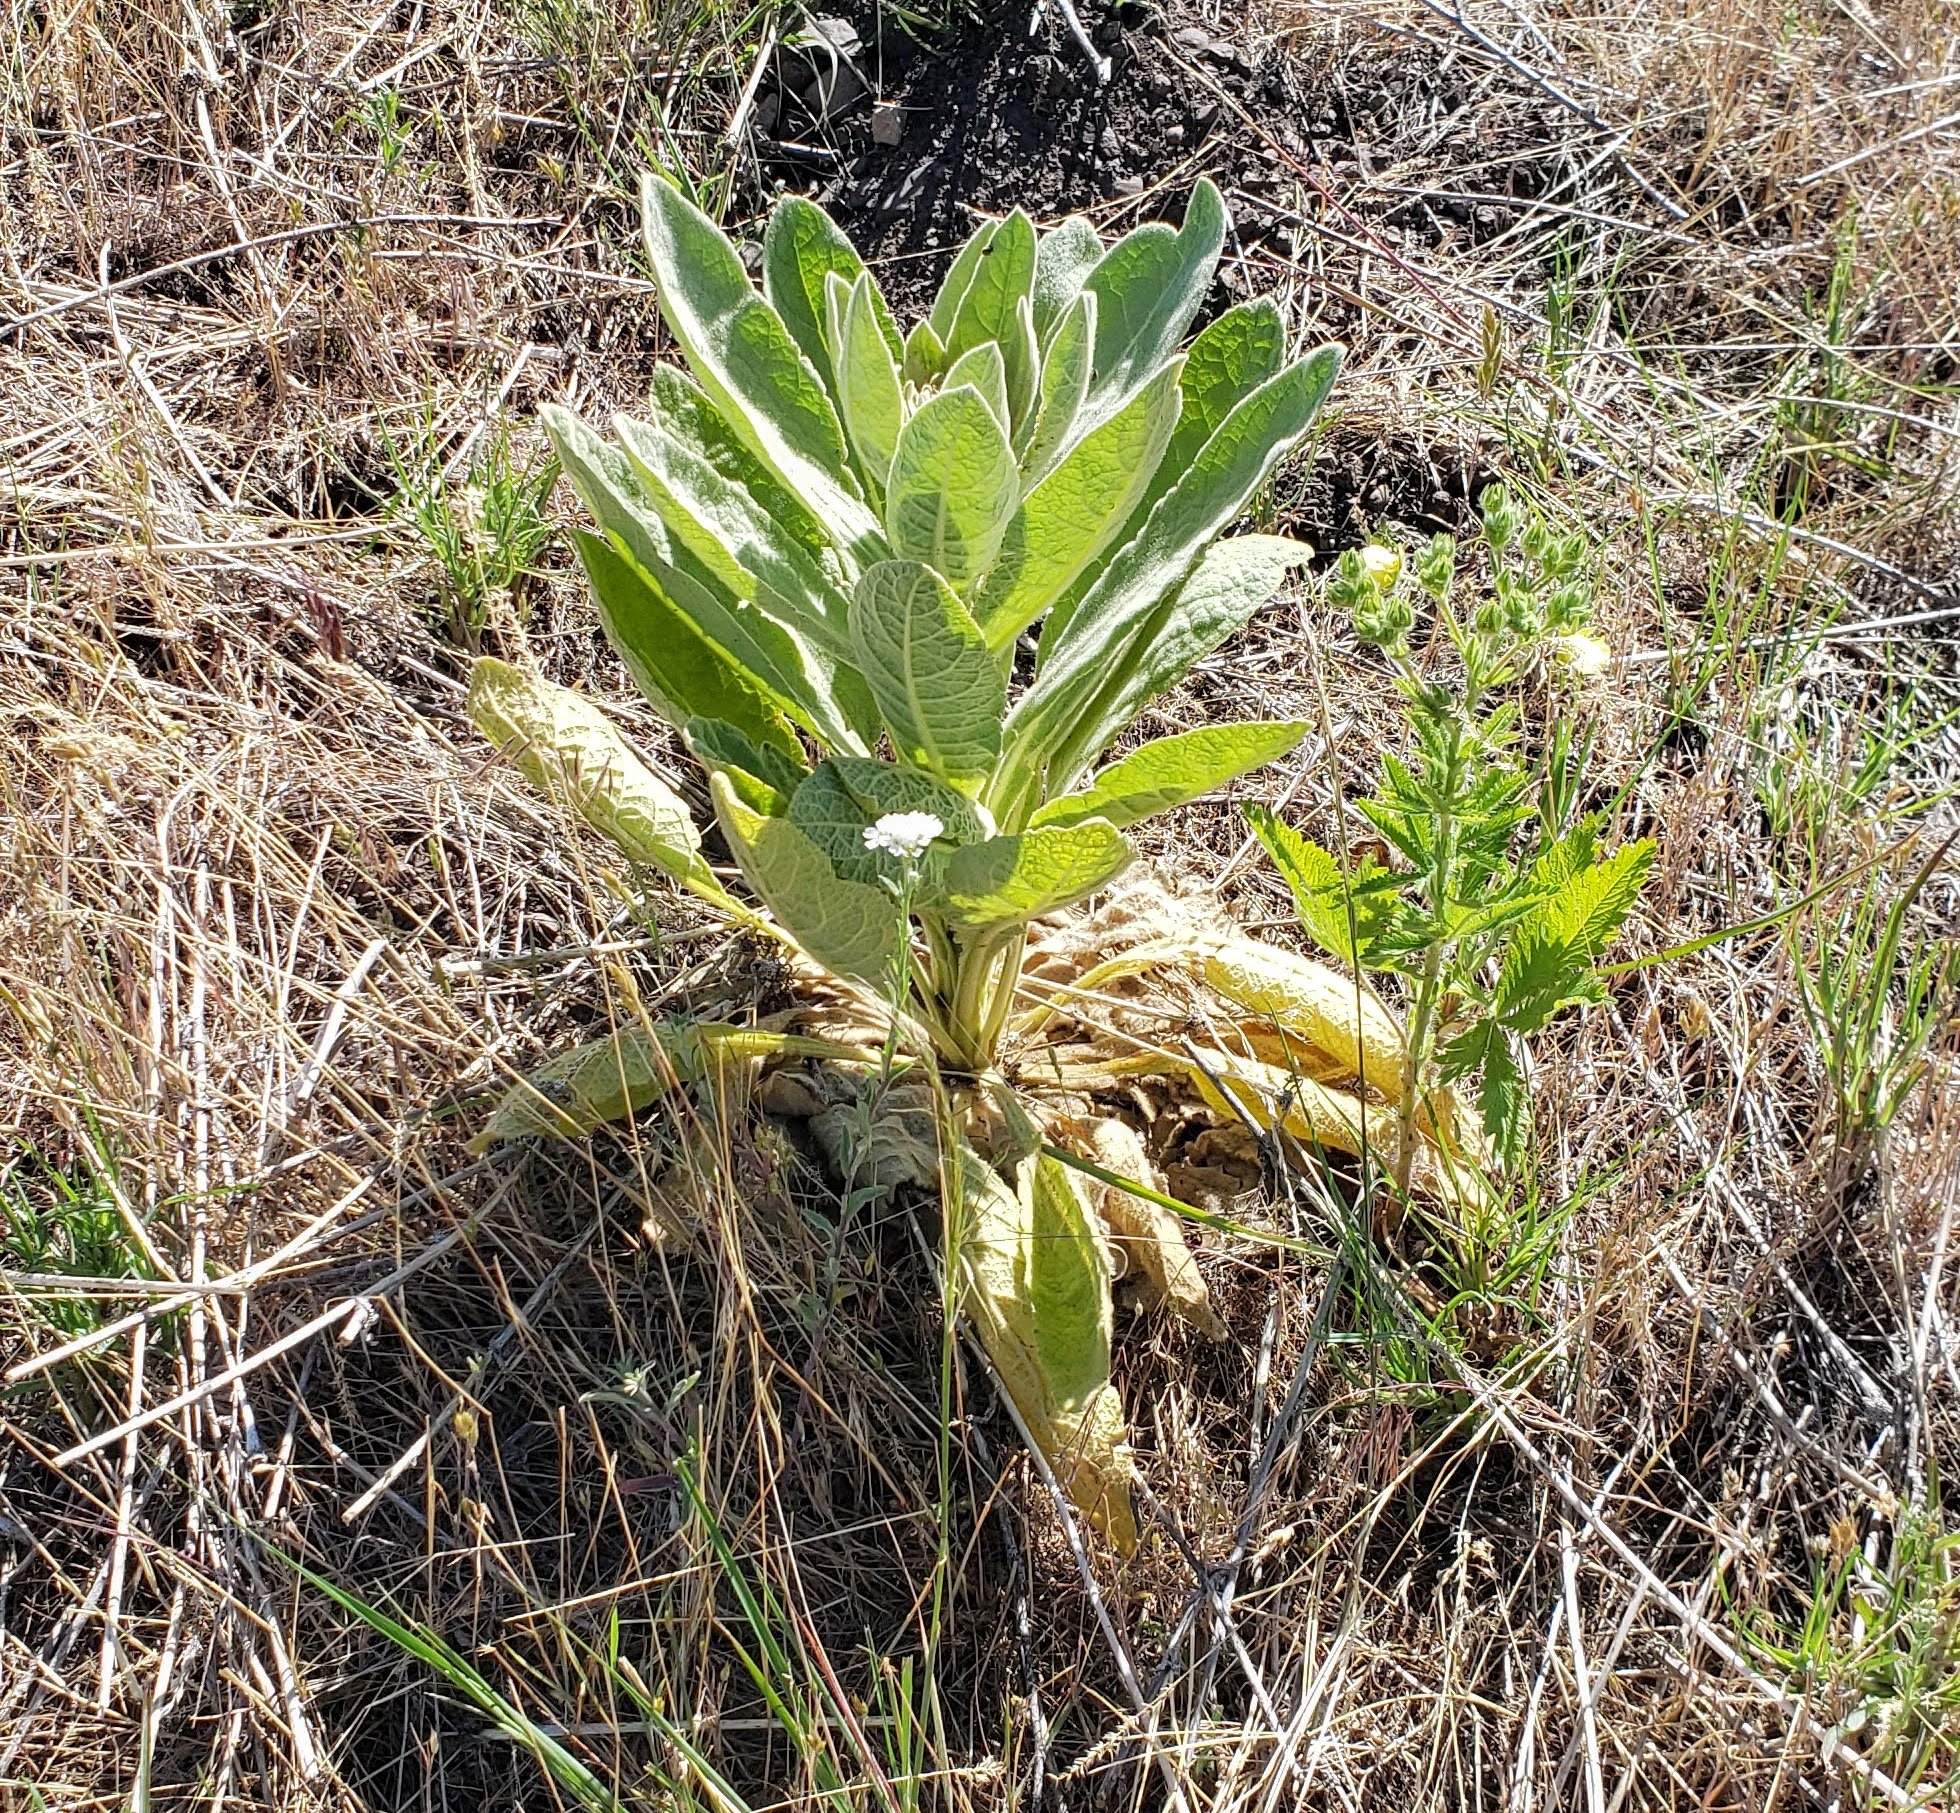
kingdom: Plantae
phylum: Tracheophyta
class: Magnoliopsida
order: Lamiales
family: Scrophulariaceae
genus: Verbascum
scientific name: Verbascum thapsus
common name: Common mullein
